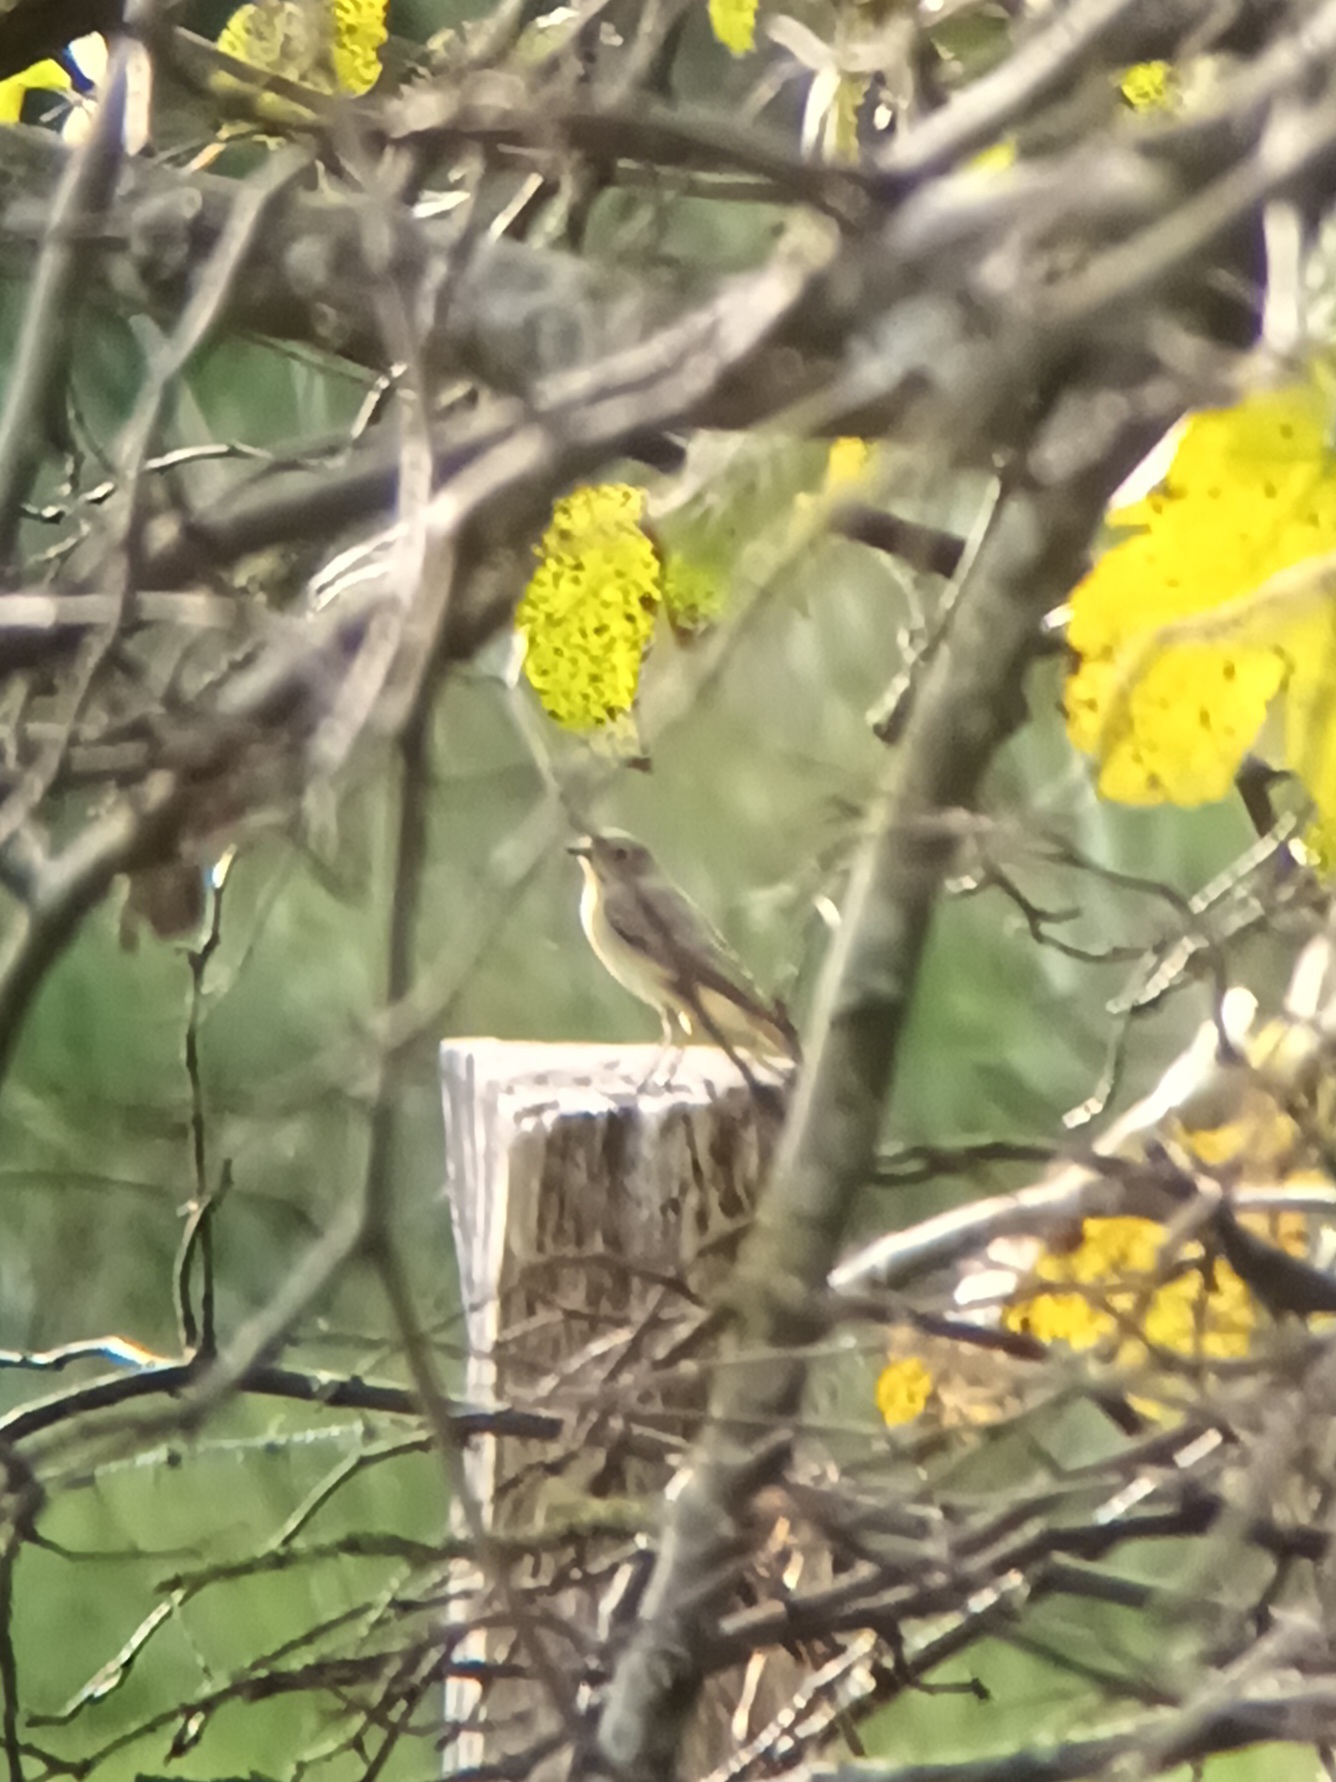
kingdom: Animalia
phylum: Chordata
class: Aves
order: Passeriformes
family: Muscicapidae
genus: Phoenicurus
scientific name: Phoenicurus phoenicurus
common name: Common redstart
